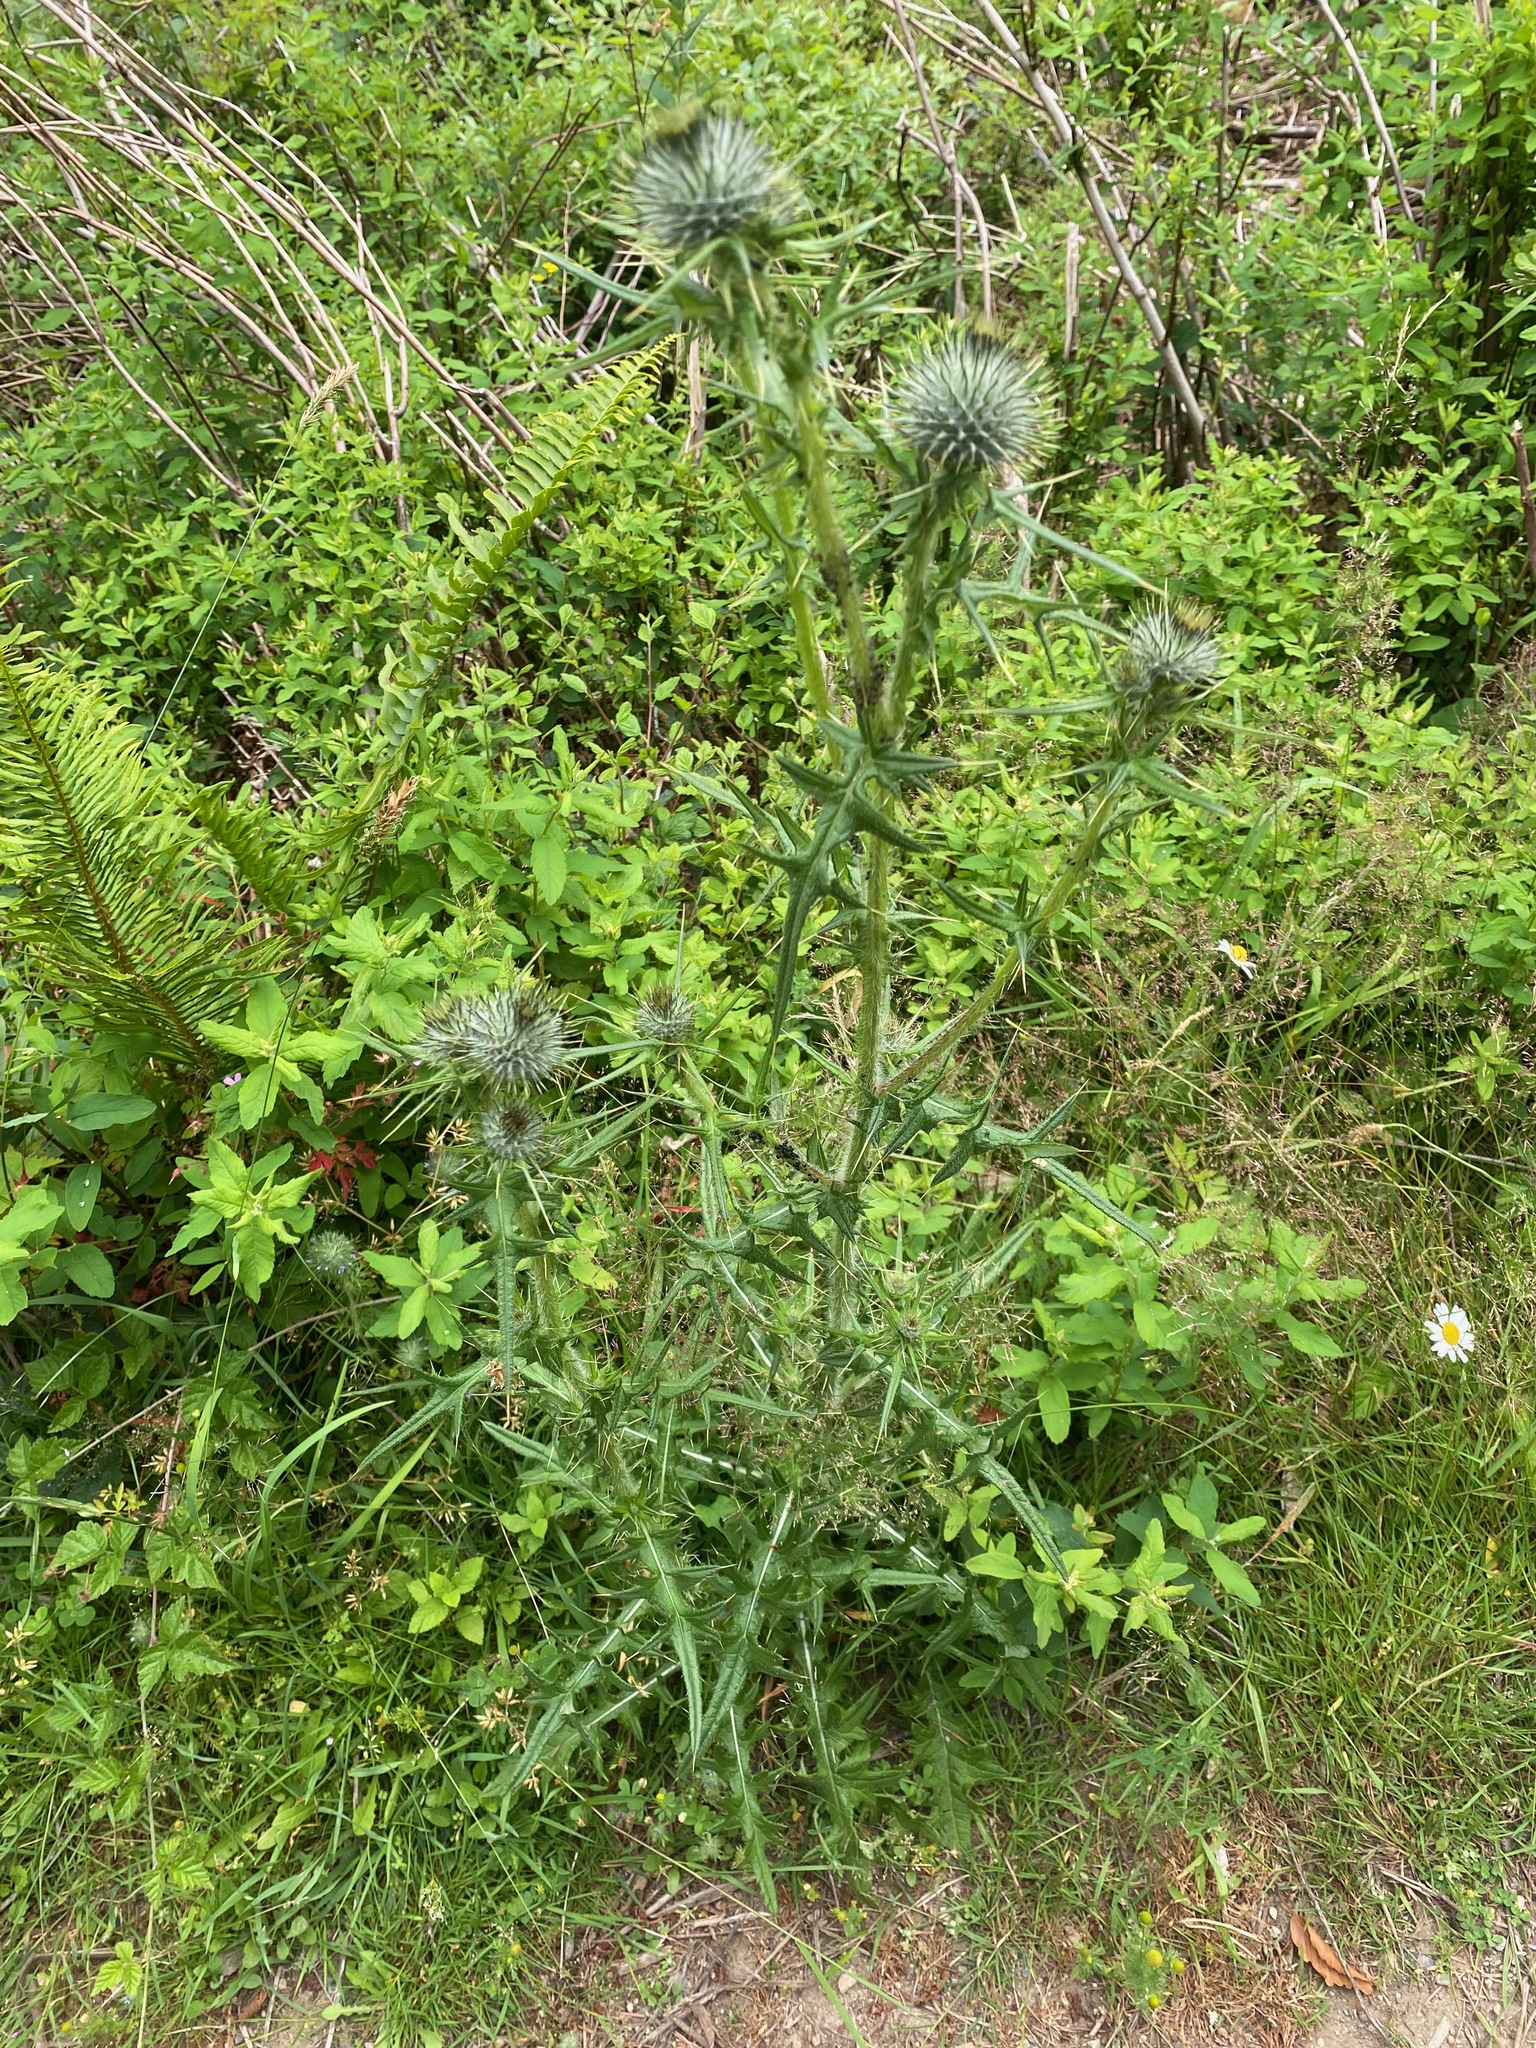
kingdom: Plantae
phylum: Tracheophyta
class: Magnoliopsida
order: Asterales
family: Asteraceae
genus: Cirsium
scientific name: Cirsium vulgare
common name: Bull thistle
